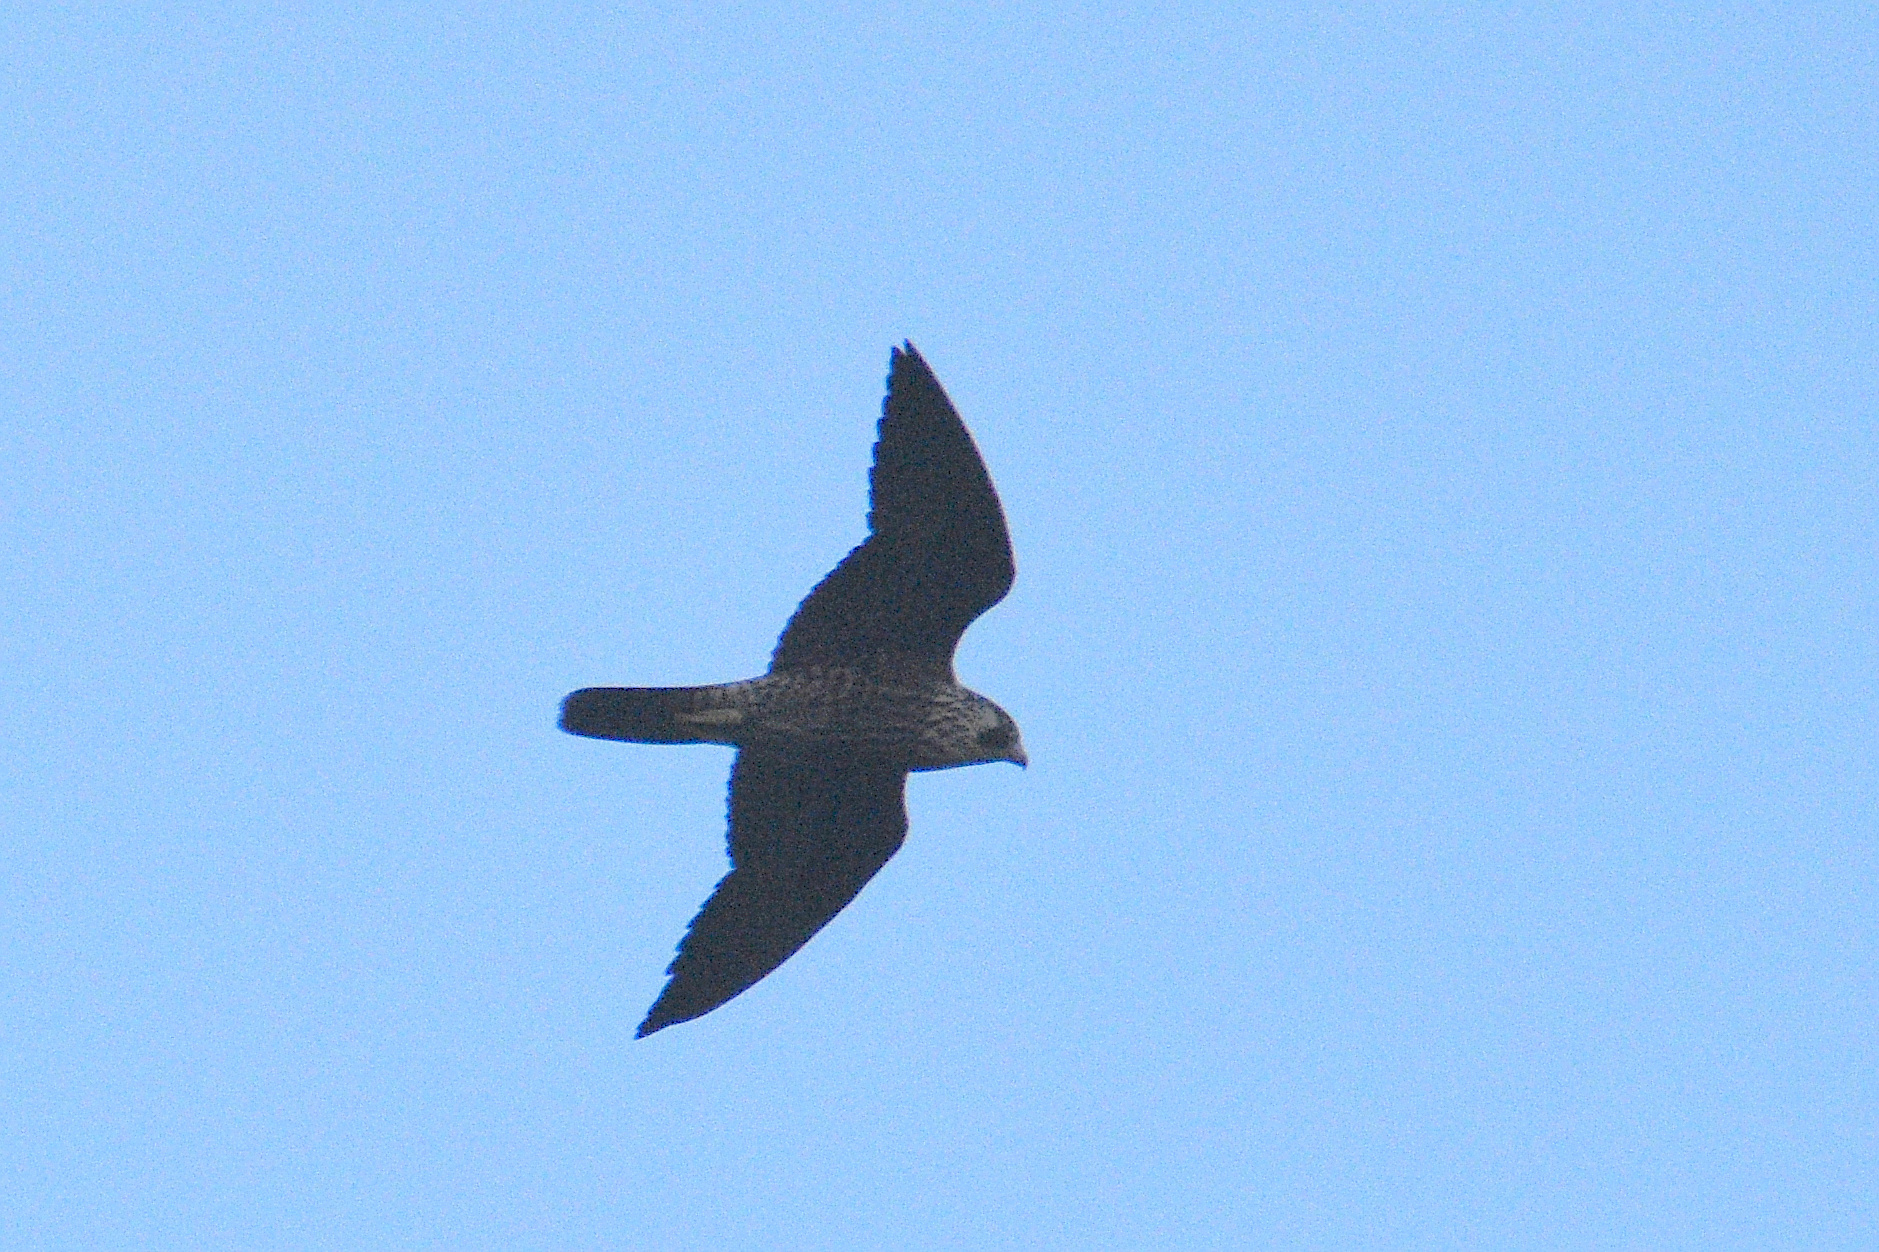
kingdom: Animalia
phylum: Chordata
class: Aves
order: Falconiformes
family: Falconidae
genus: Falco
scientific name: Falco peregrinus
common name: Peregrine falcon
